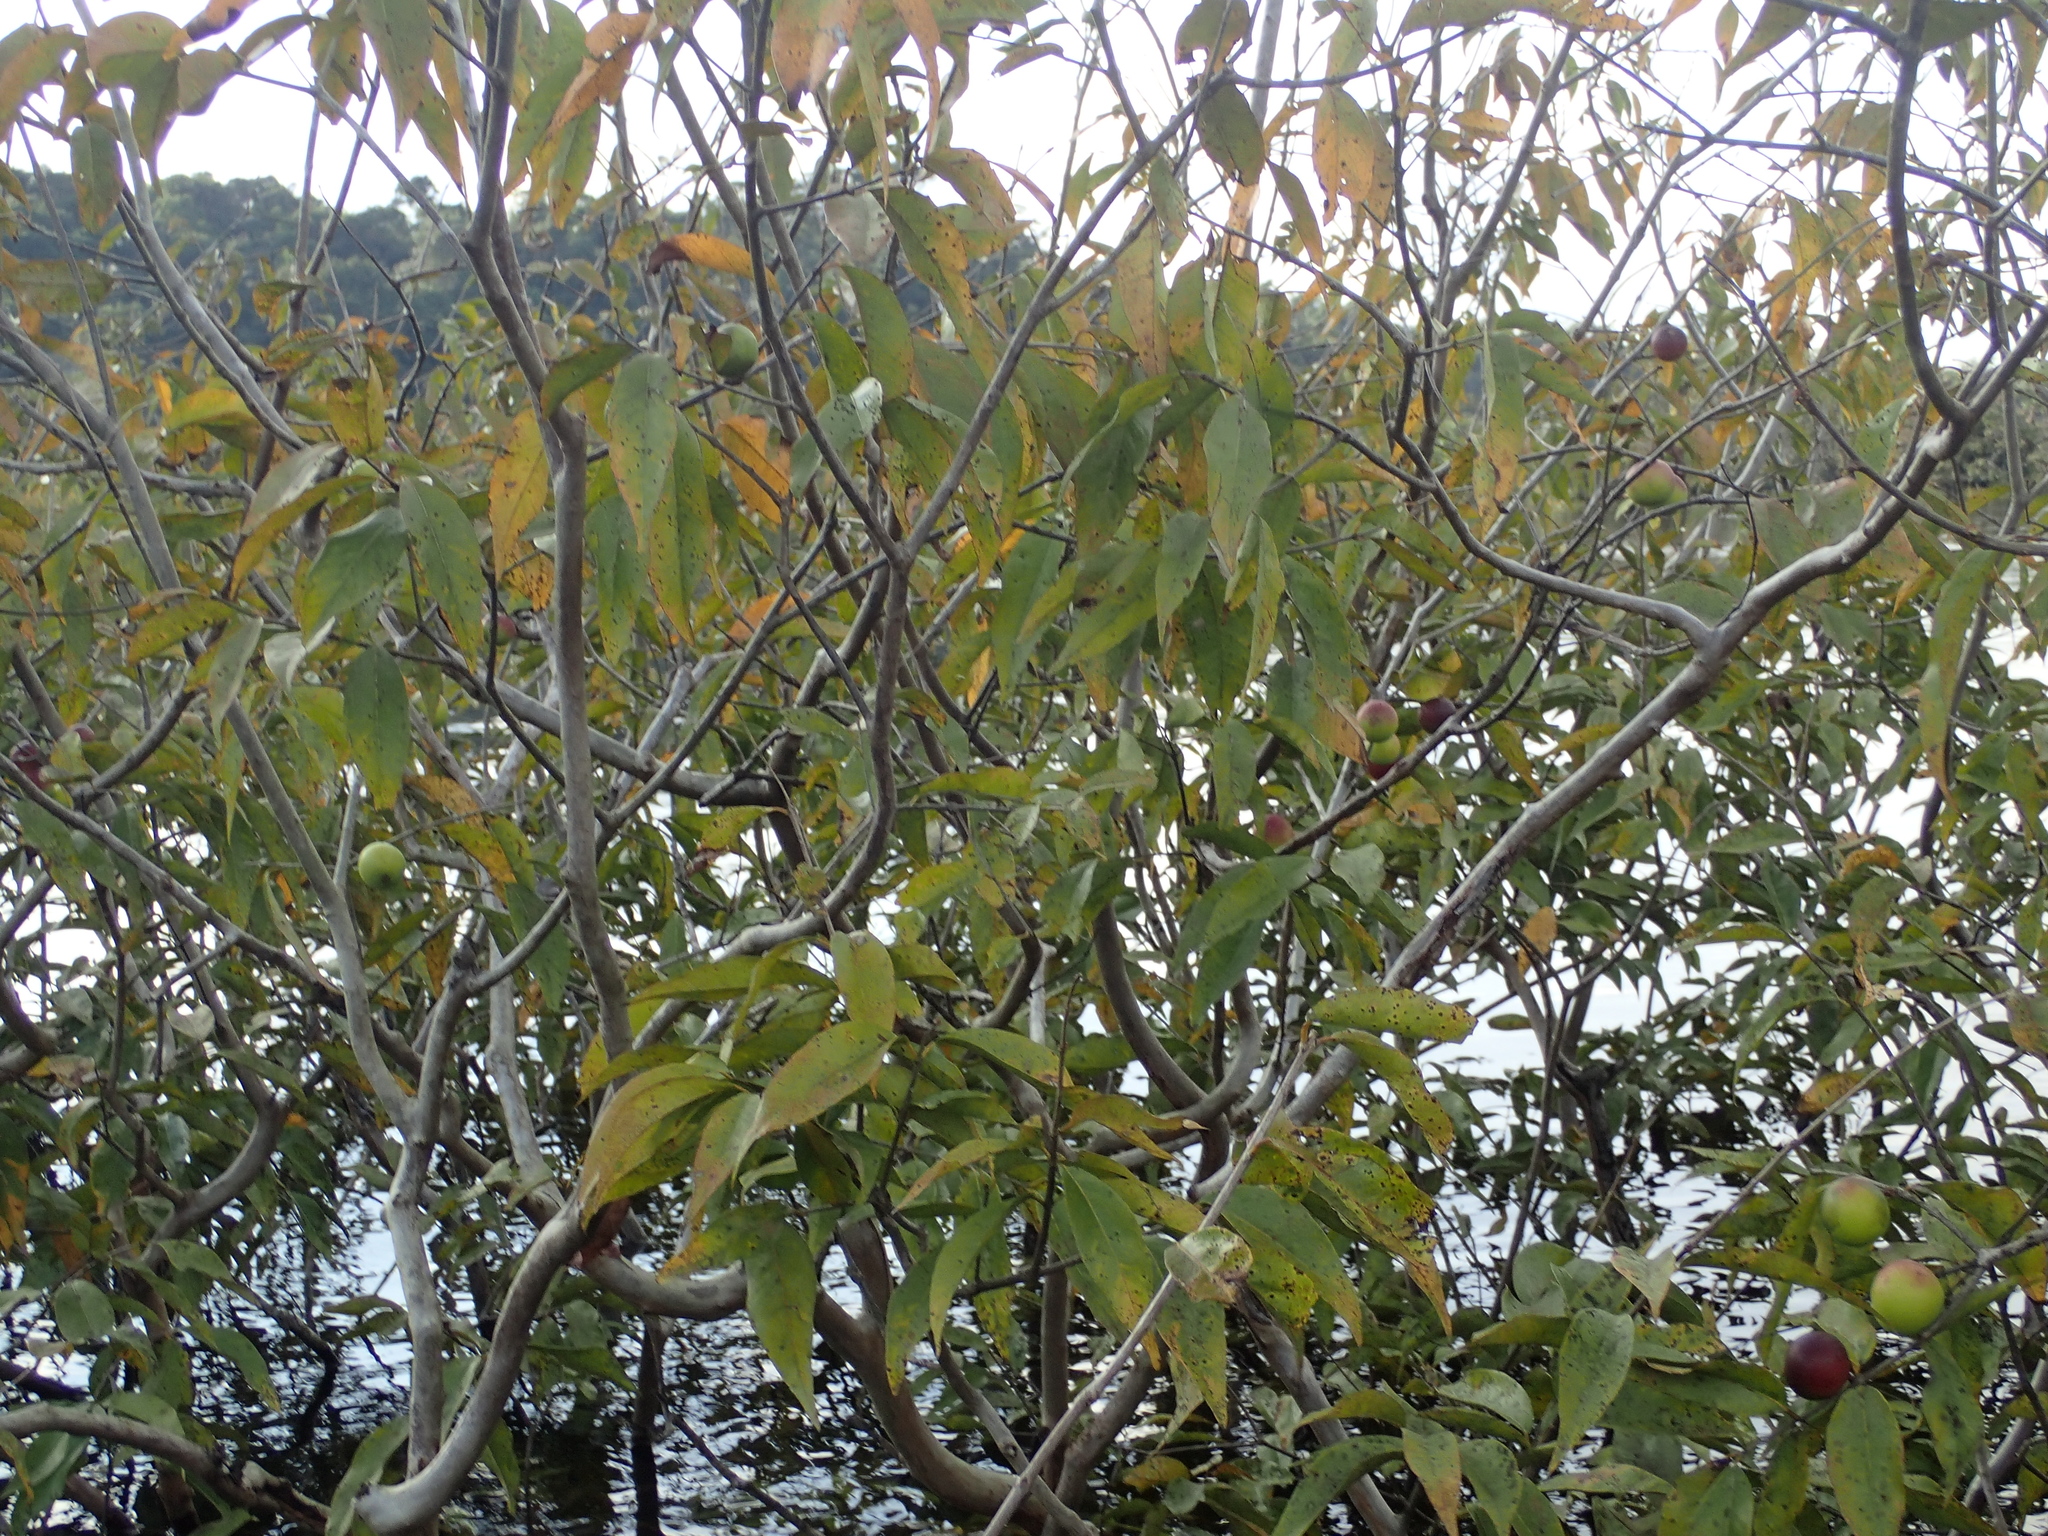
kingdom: Plantae
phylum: Tracheophyta
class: Magnoliopsida
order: Myrtales
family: Myrtaceae
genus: Myrciaria
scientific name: Myrciaria dubia
